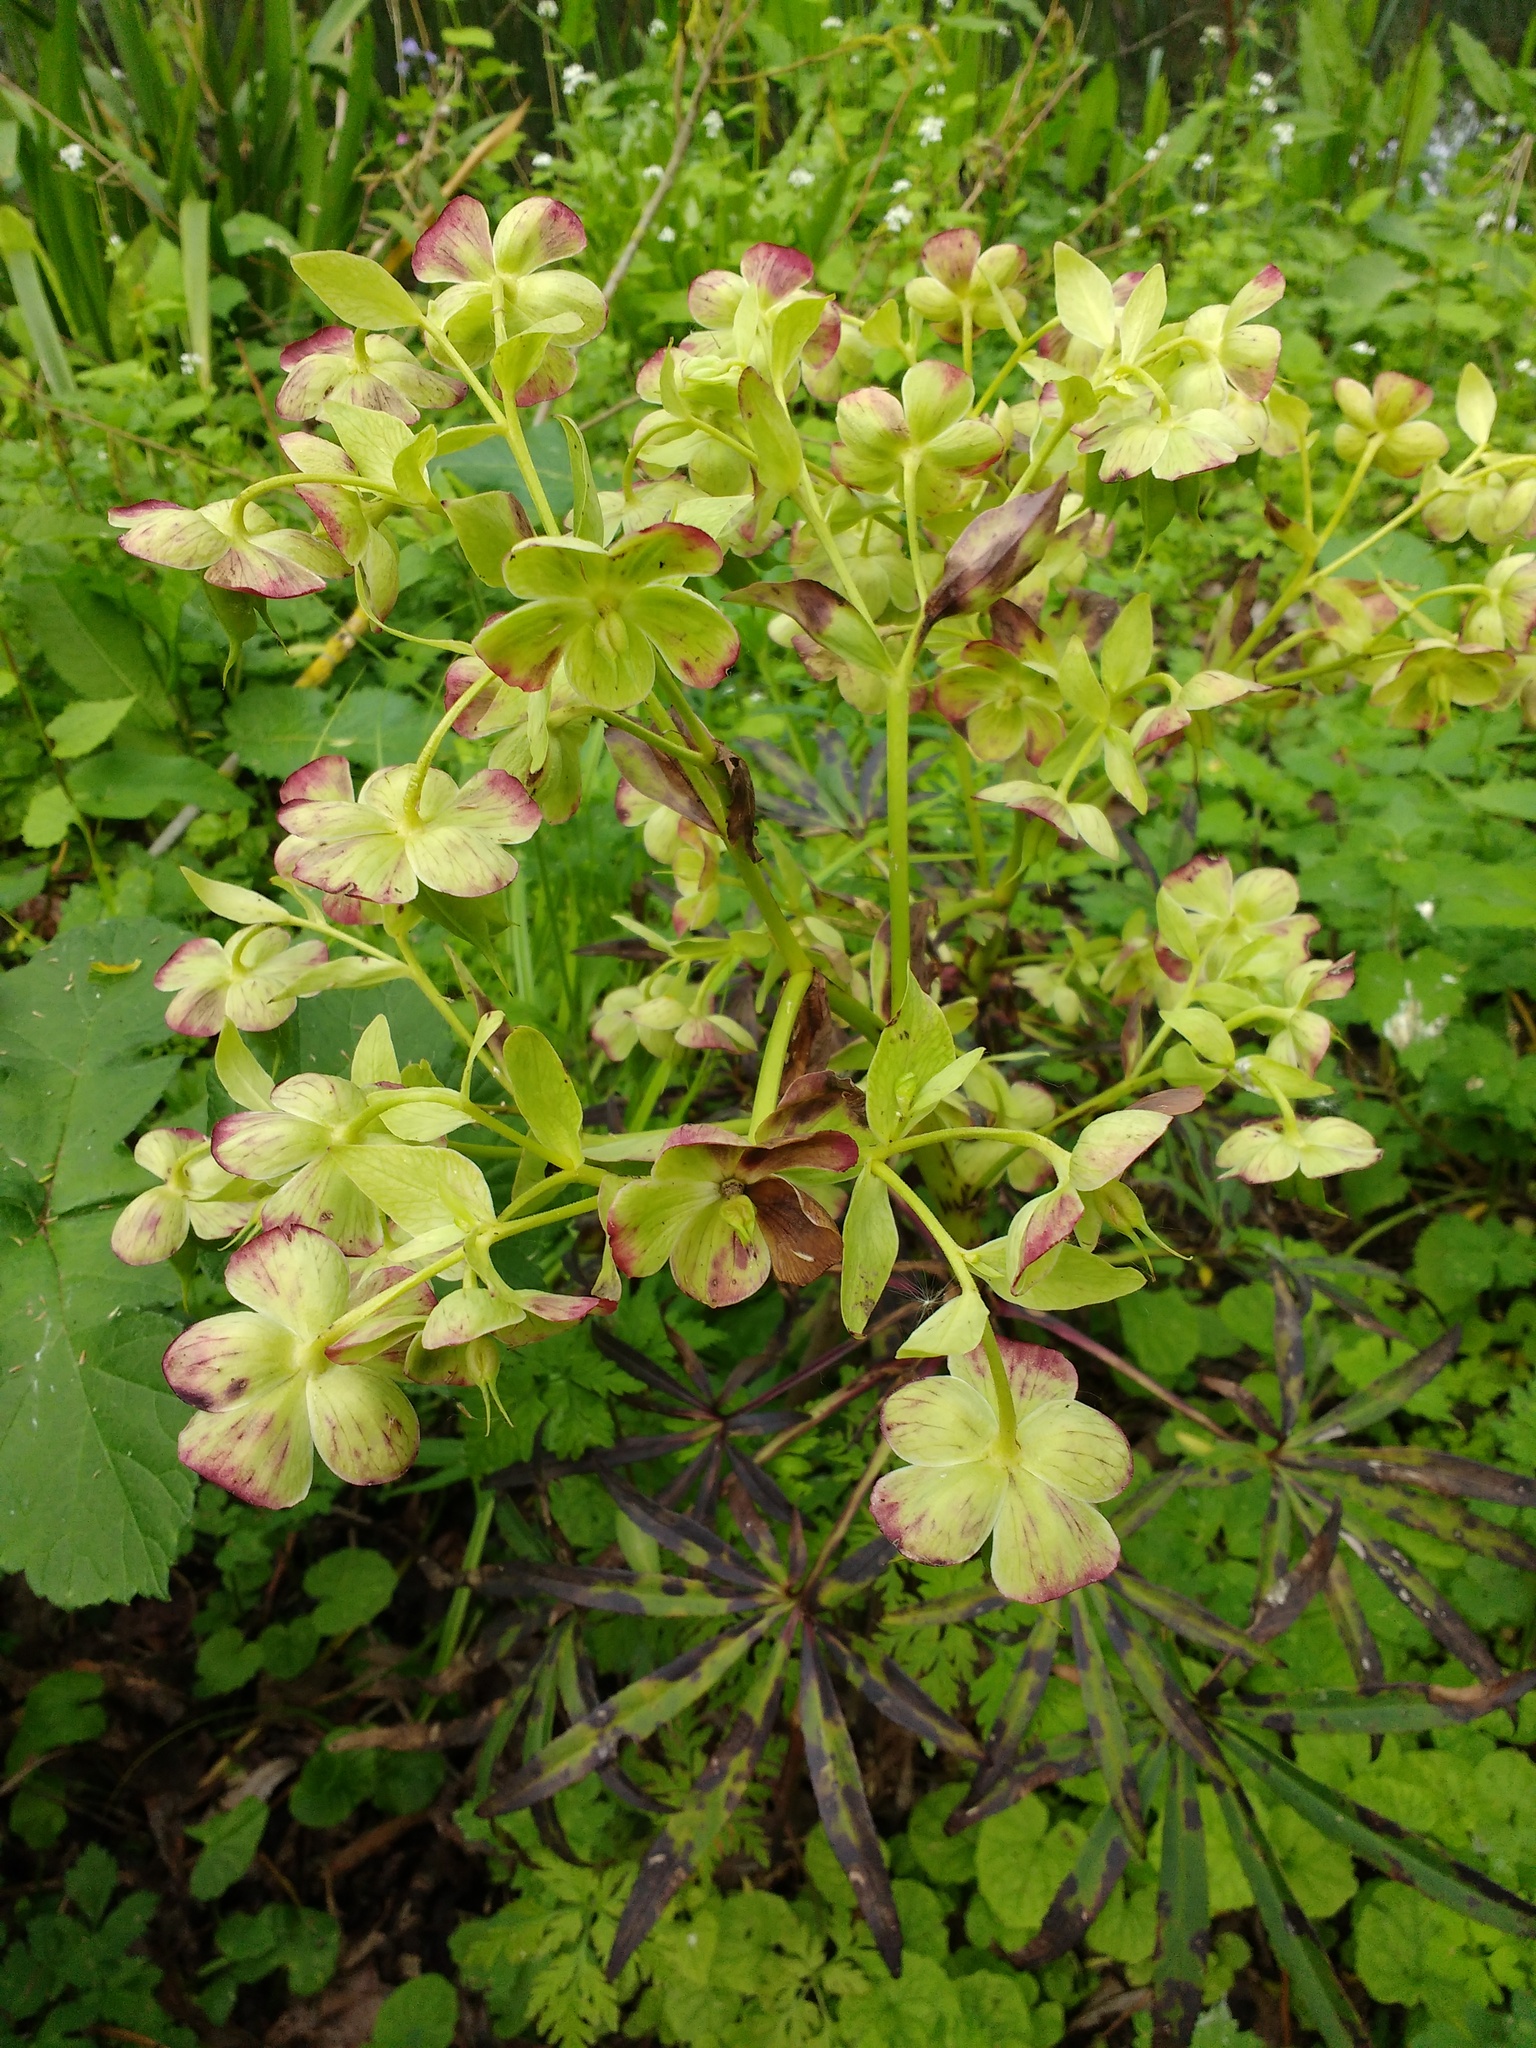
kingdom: Plantae
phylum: Tracheophyta
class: Magnoliopsida
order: Ranunculales
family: Ranunculaceae
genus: Helleborus
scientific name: Helleborus foetidus
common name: Stinking hellebore
